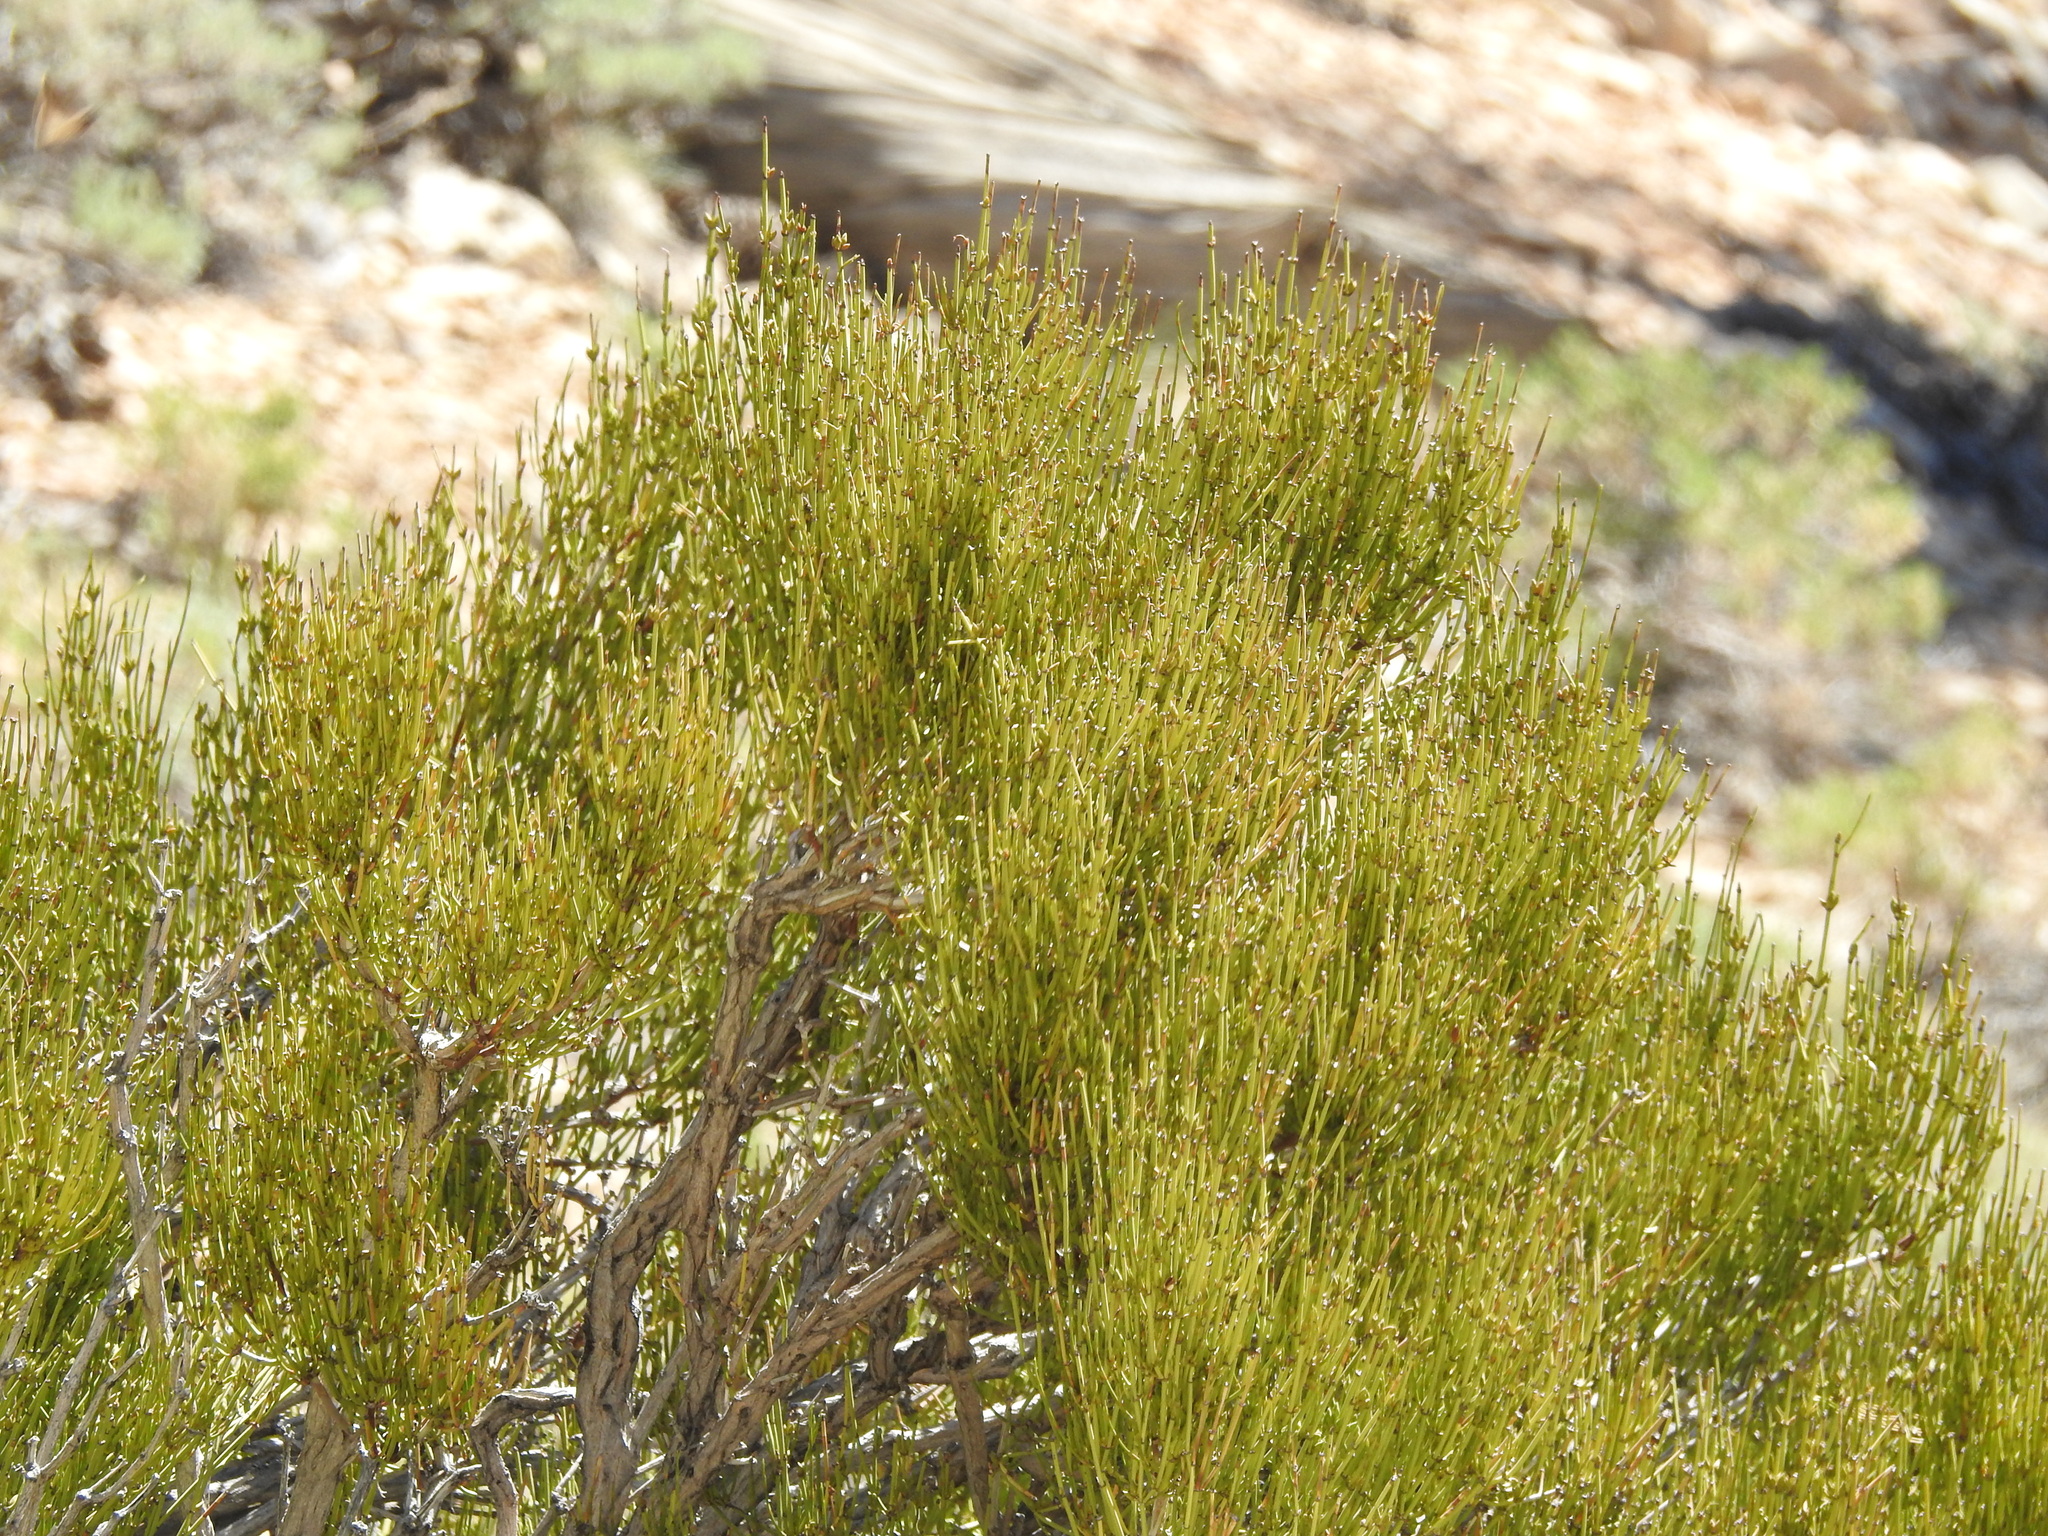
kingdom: Plantae
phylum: Tracheophyta
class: Gnetopsida
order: Ephedrales
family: Ephedraceae
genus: Ephedra
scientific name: Ephedra viridis
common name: Green ephedra
